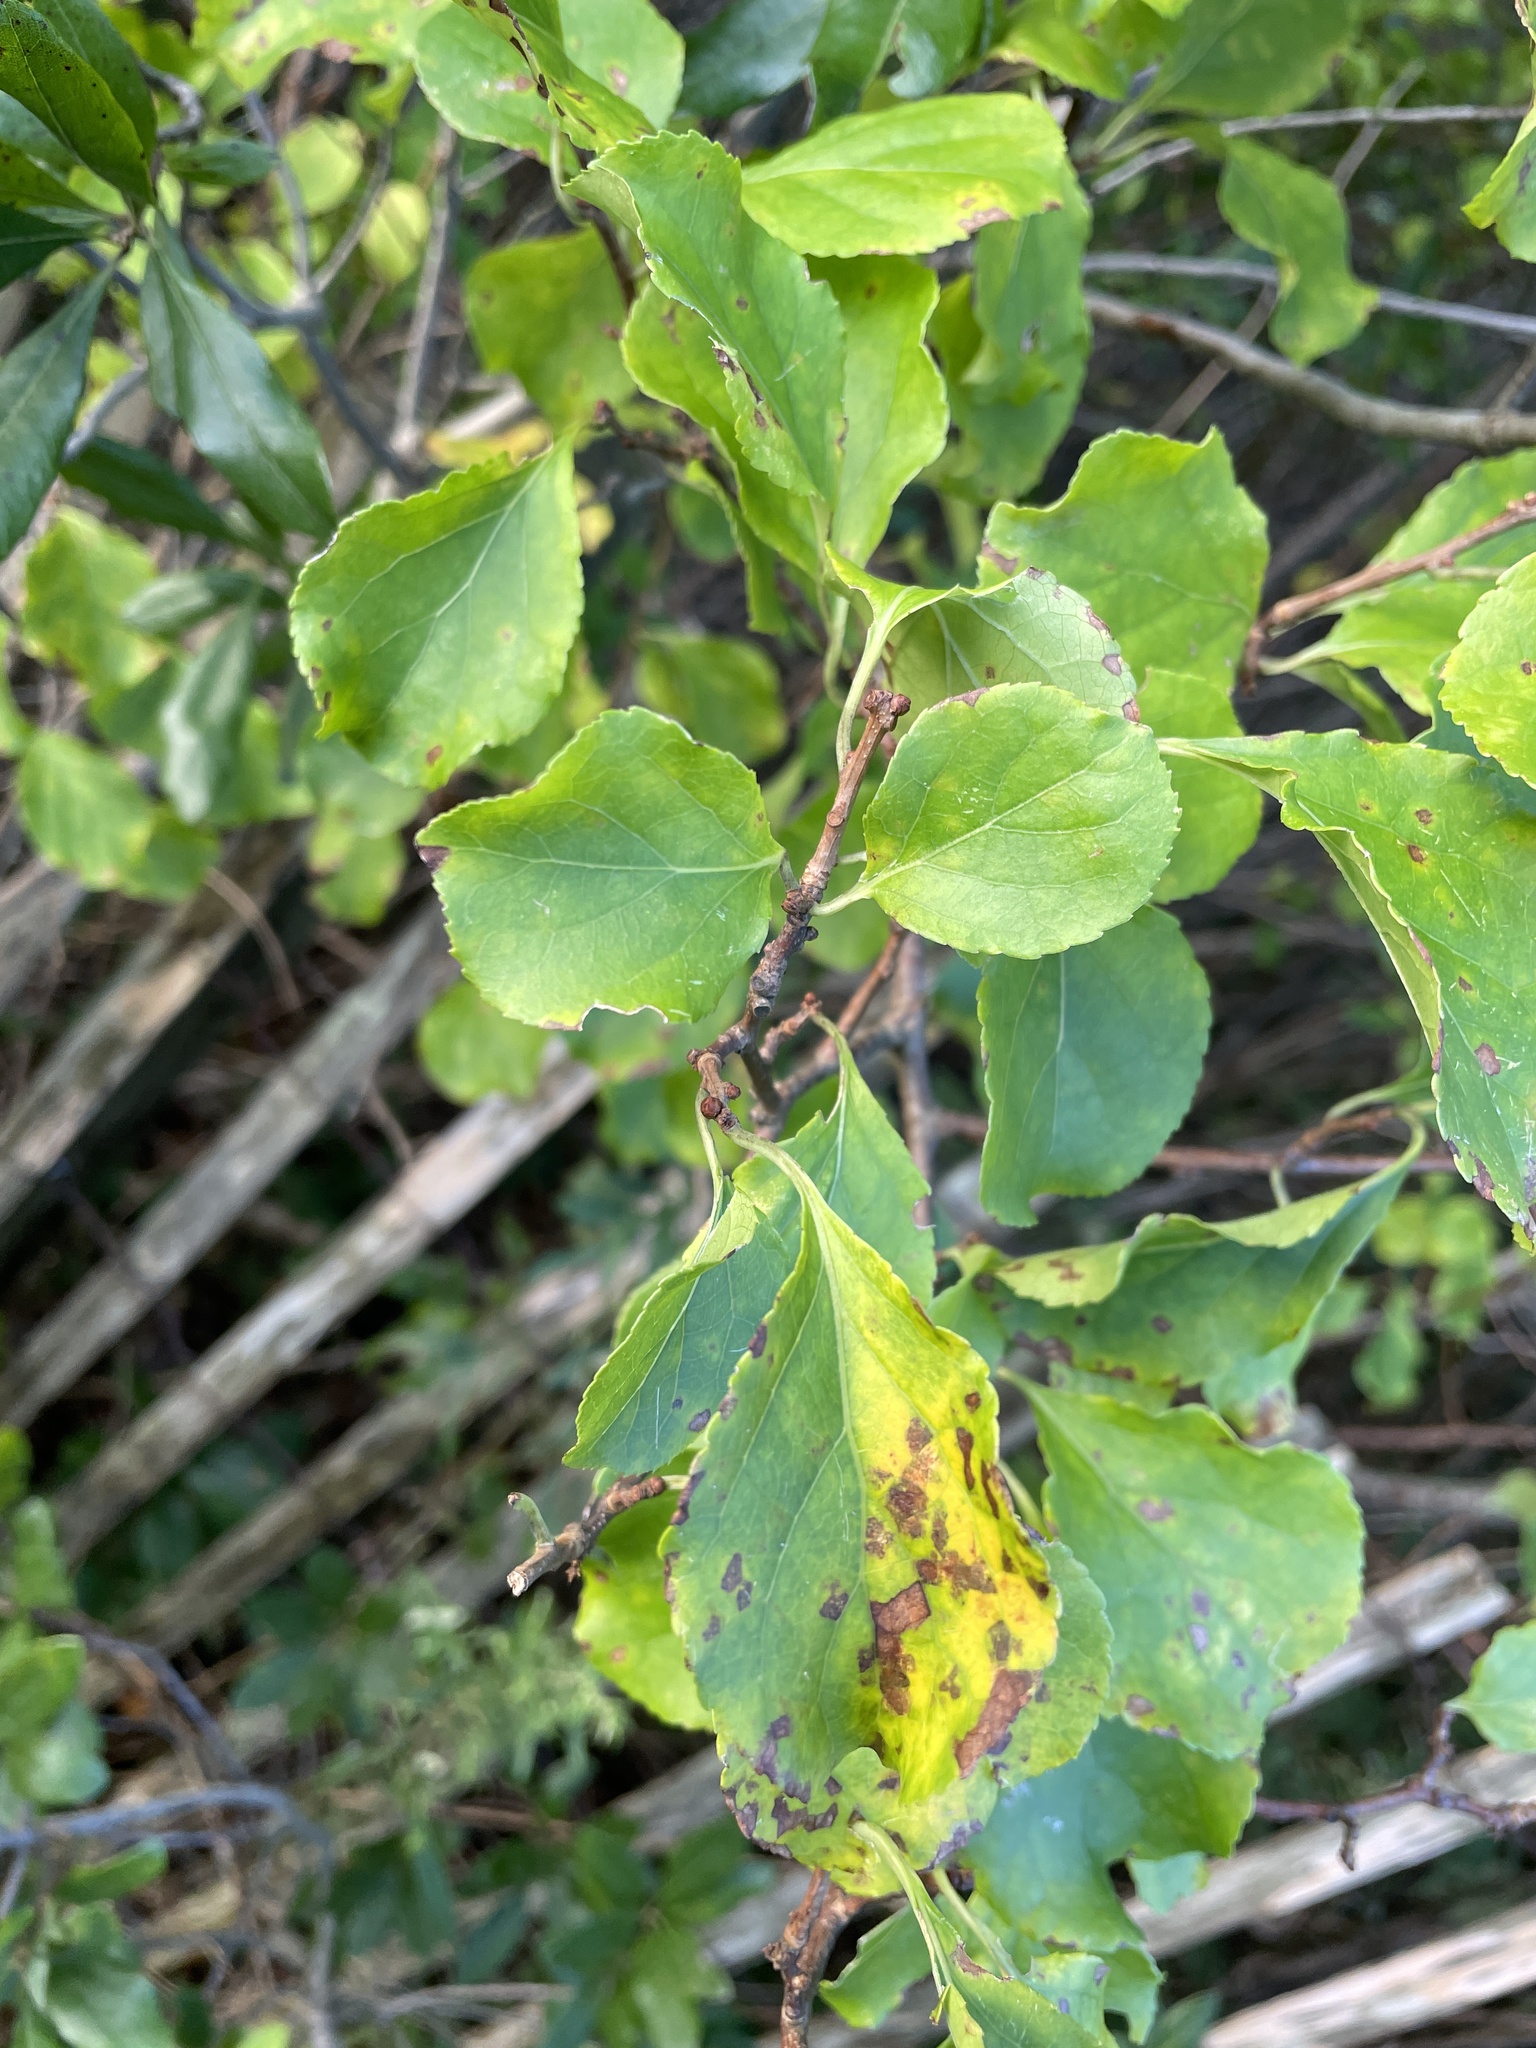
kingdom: Plantae
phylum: Tracheophyta
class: Magnoliopsida
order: Celastrales
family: Celastraceae
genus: Celastrus
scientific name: Celastrus orbiculatus
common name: Oriental bittersweet
